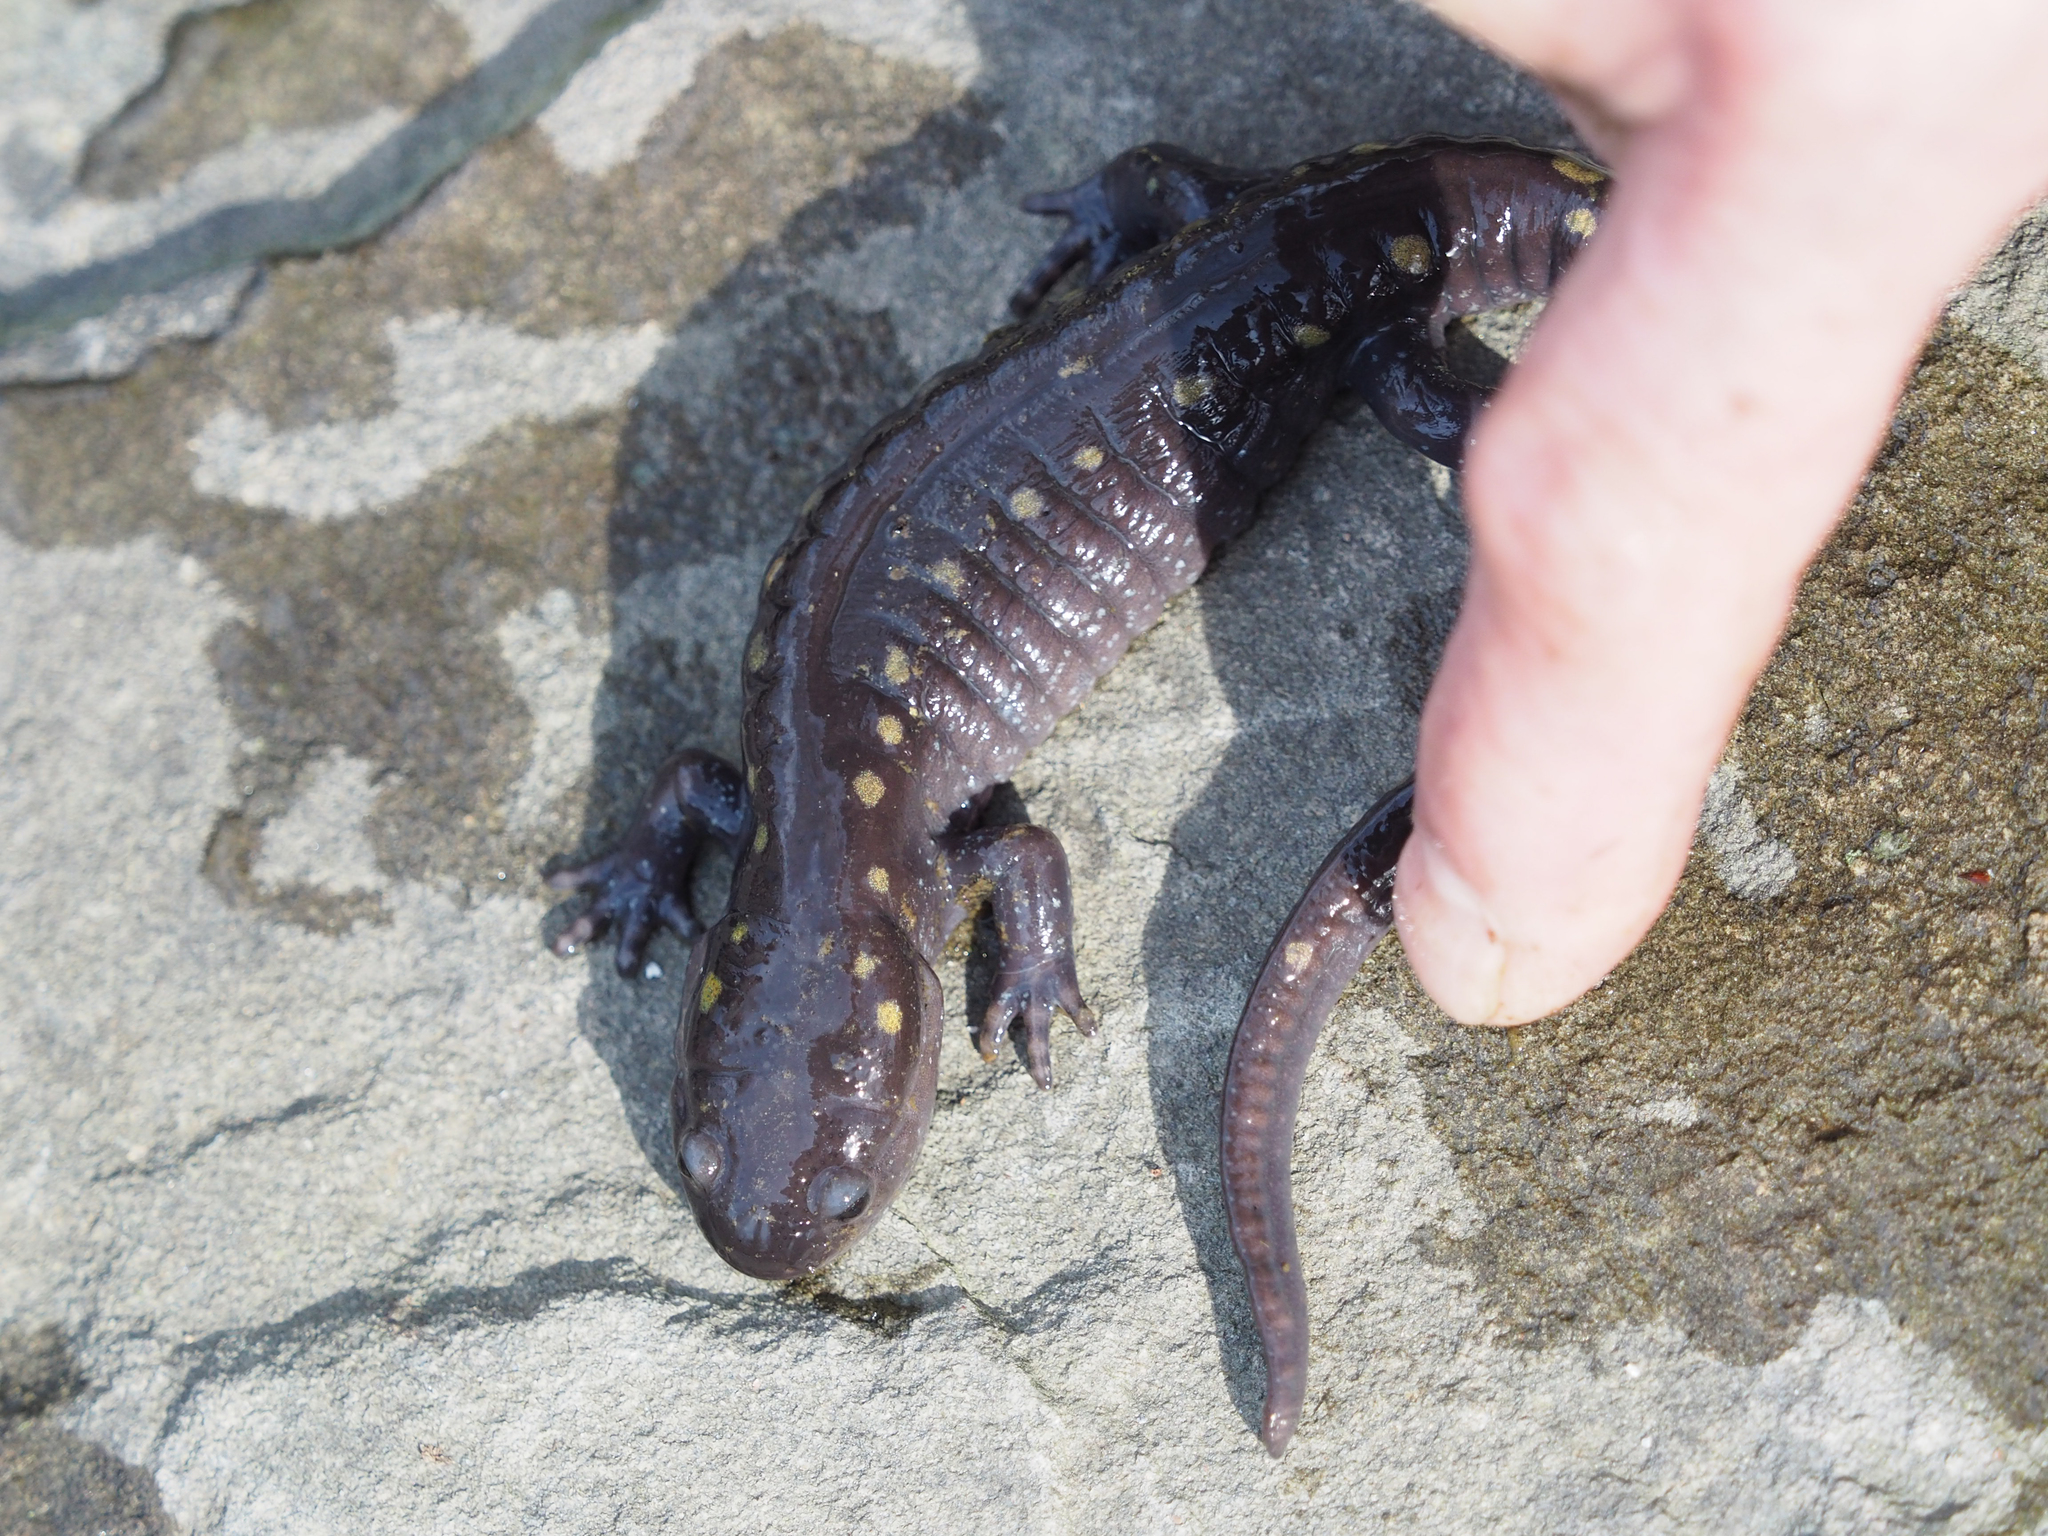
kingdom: Animalia
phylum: Chordata
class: Amphibia
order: Caudata
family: Ambystomatidae
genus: Ambystoma
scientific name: Ambystoma maculatum
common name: Spotted salamander
